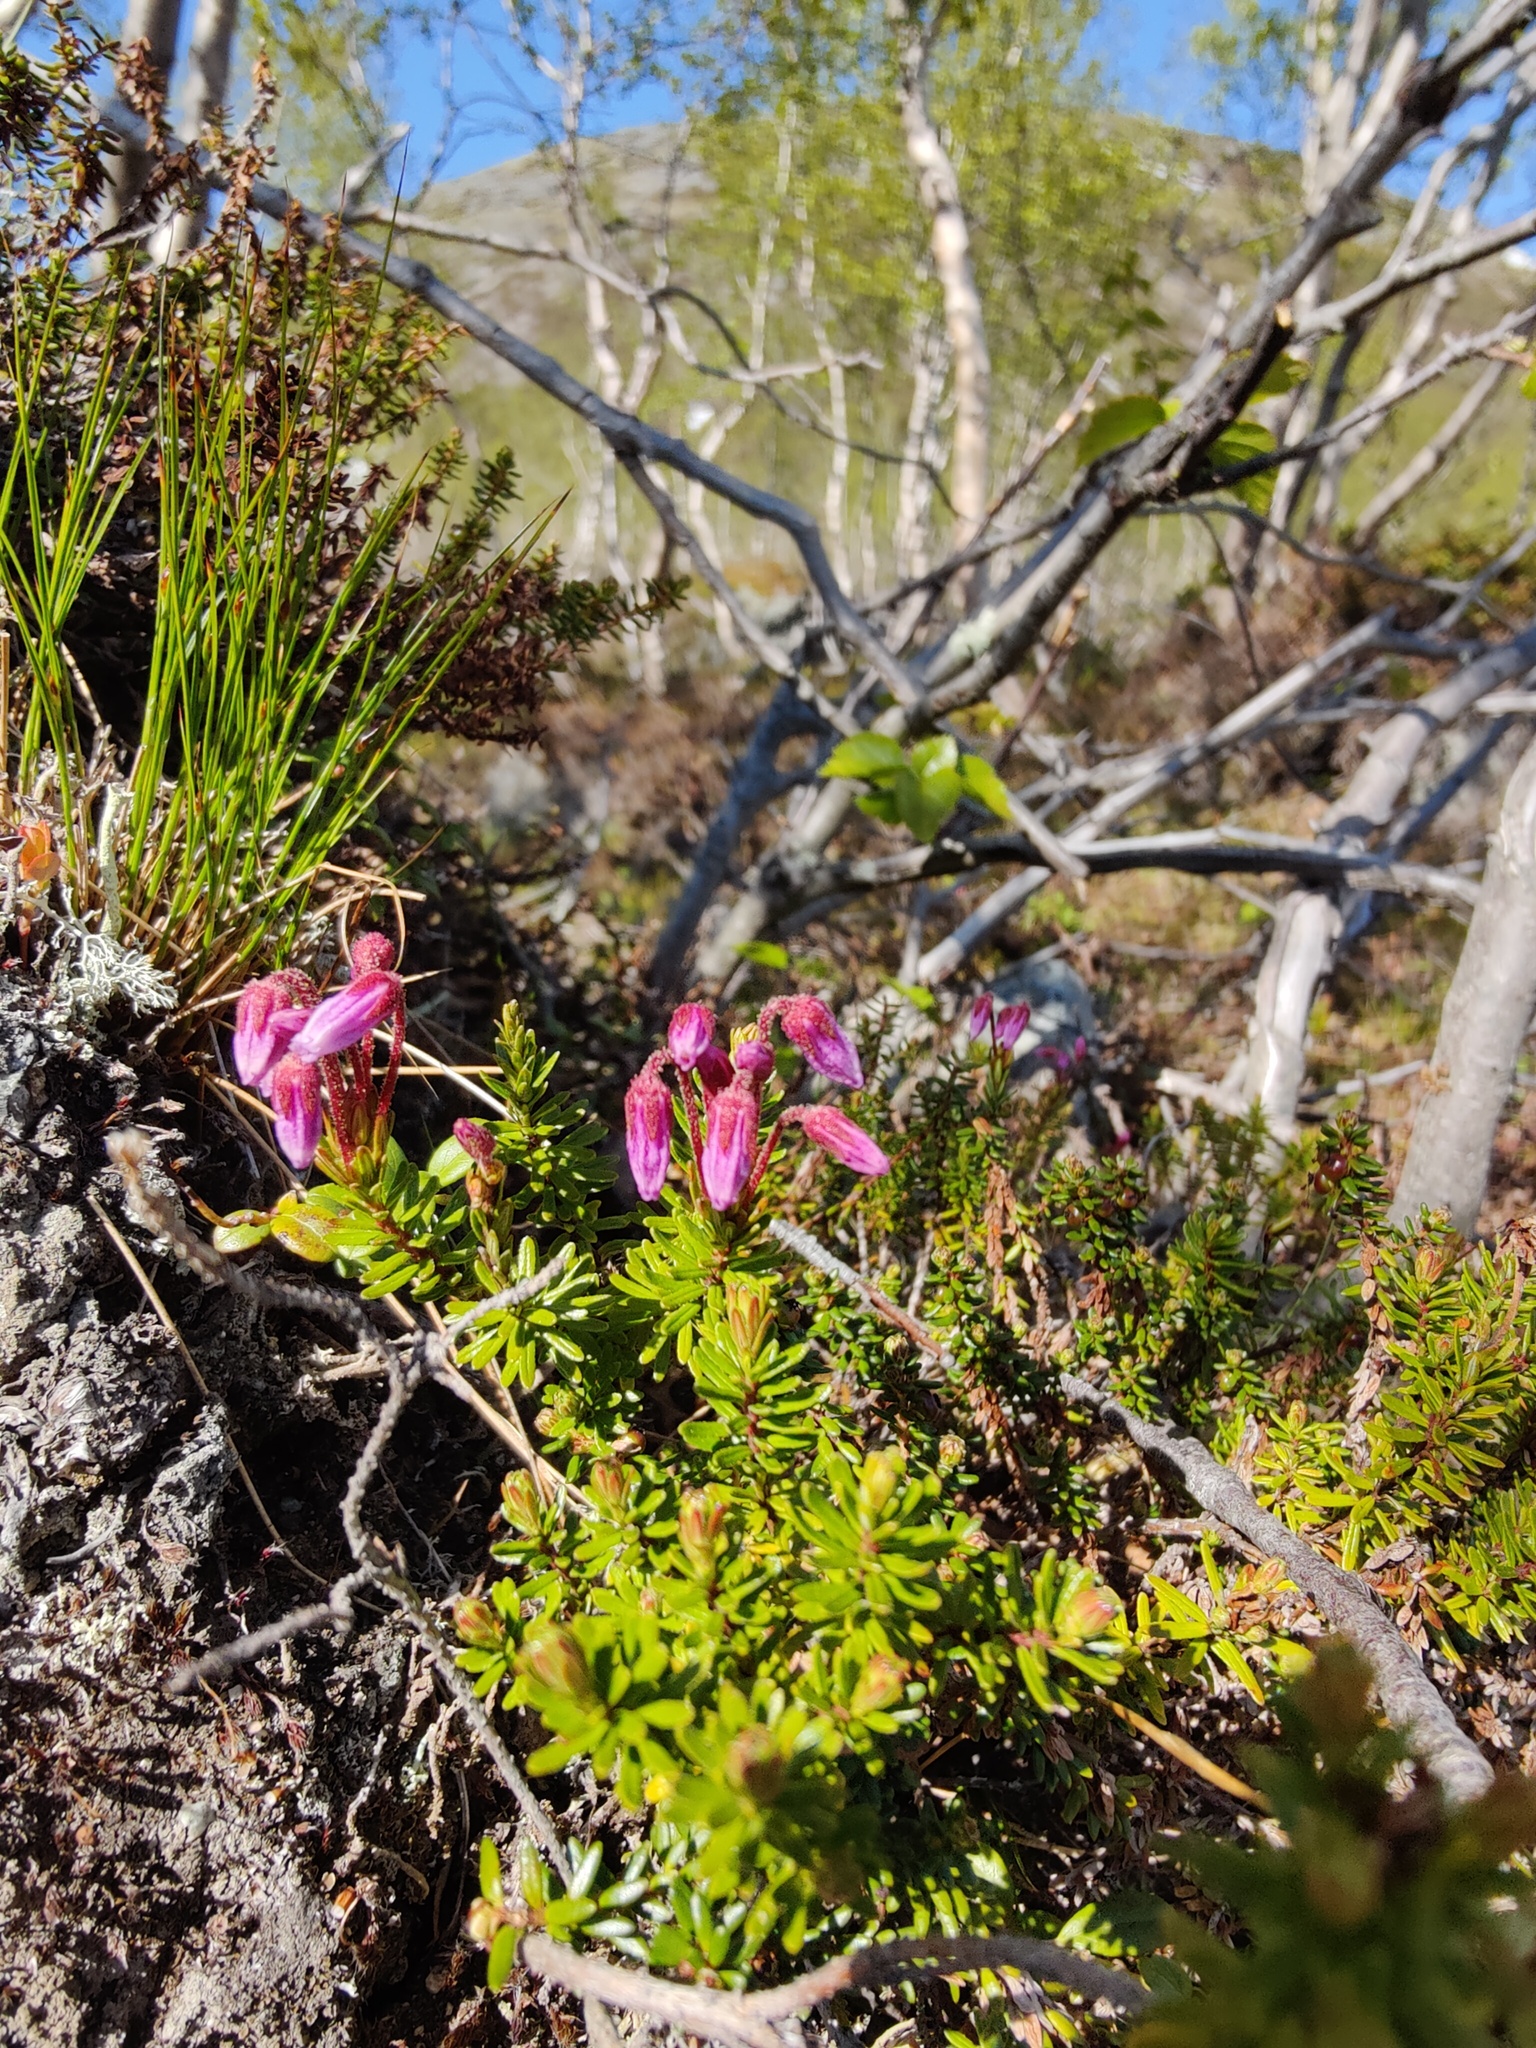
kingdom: Plantae
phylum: Tracheophyta
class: Magnoliopsida
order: Ericales
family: Ericaceae
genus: Phyllodoce
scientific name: Phyllodoce caerulea
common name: Blue heath
